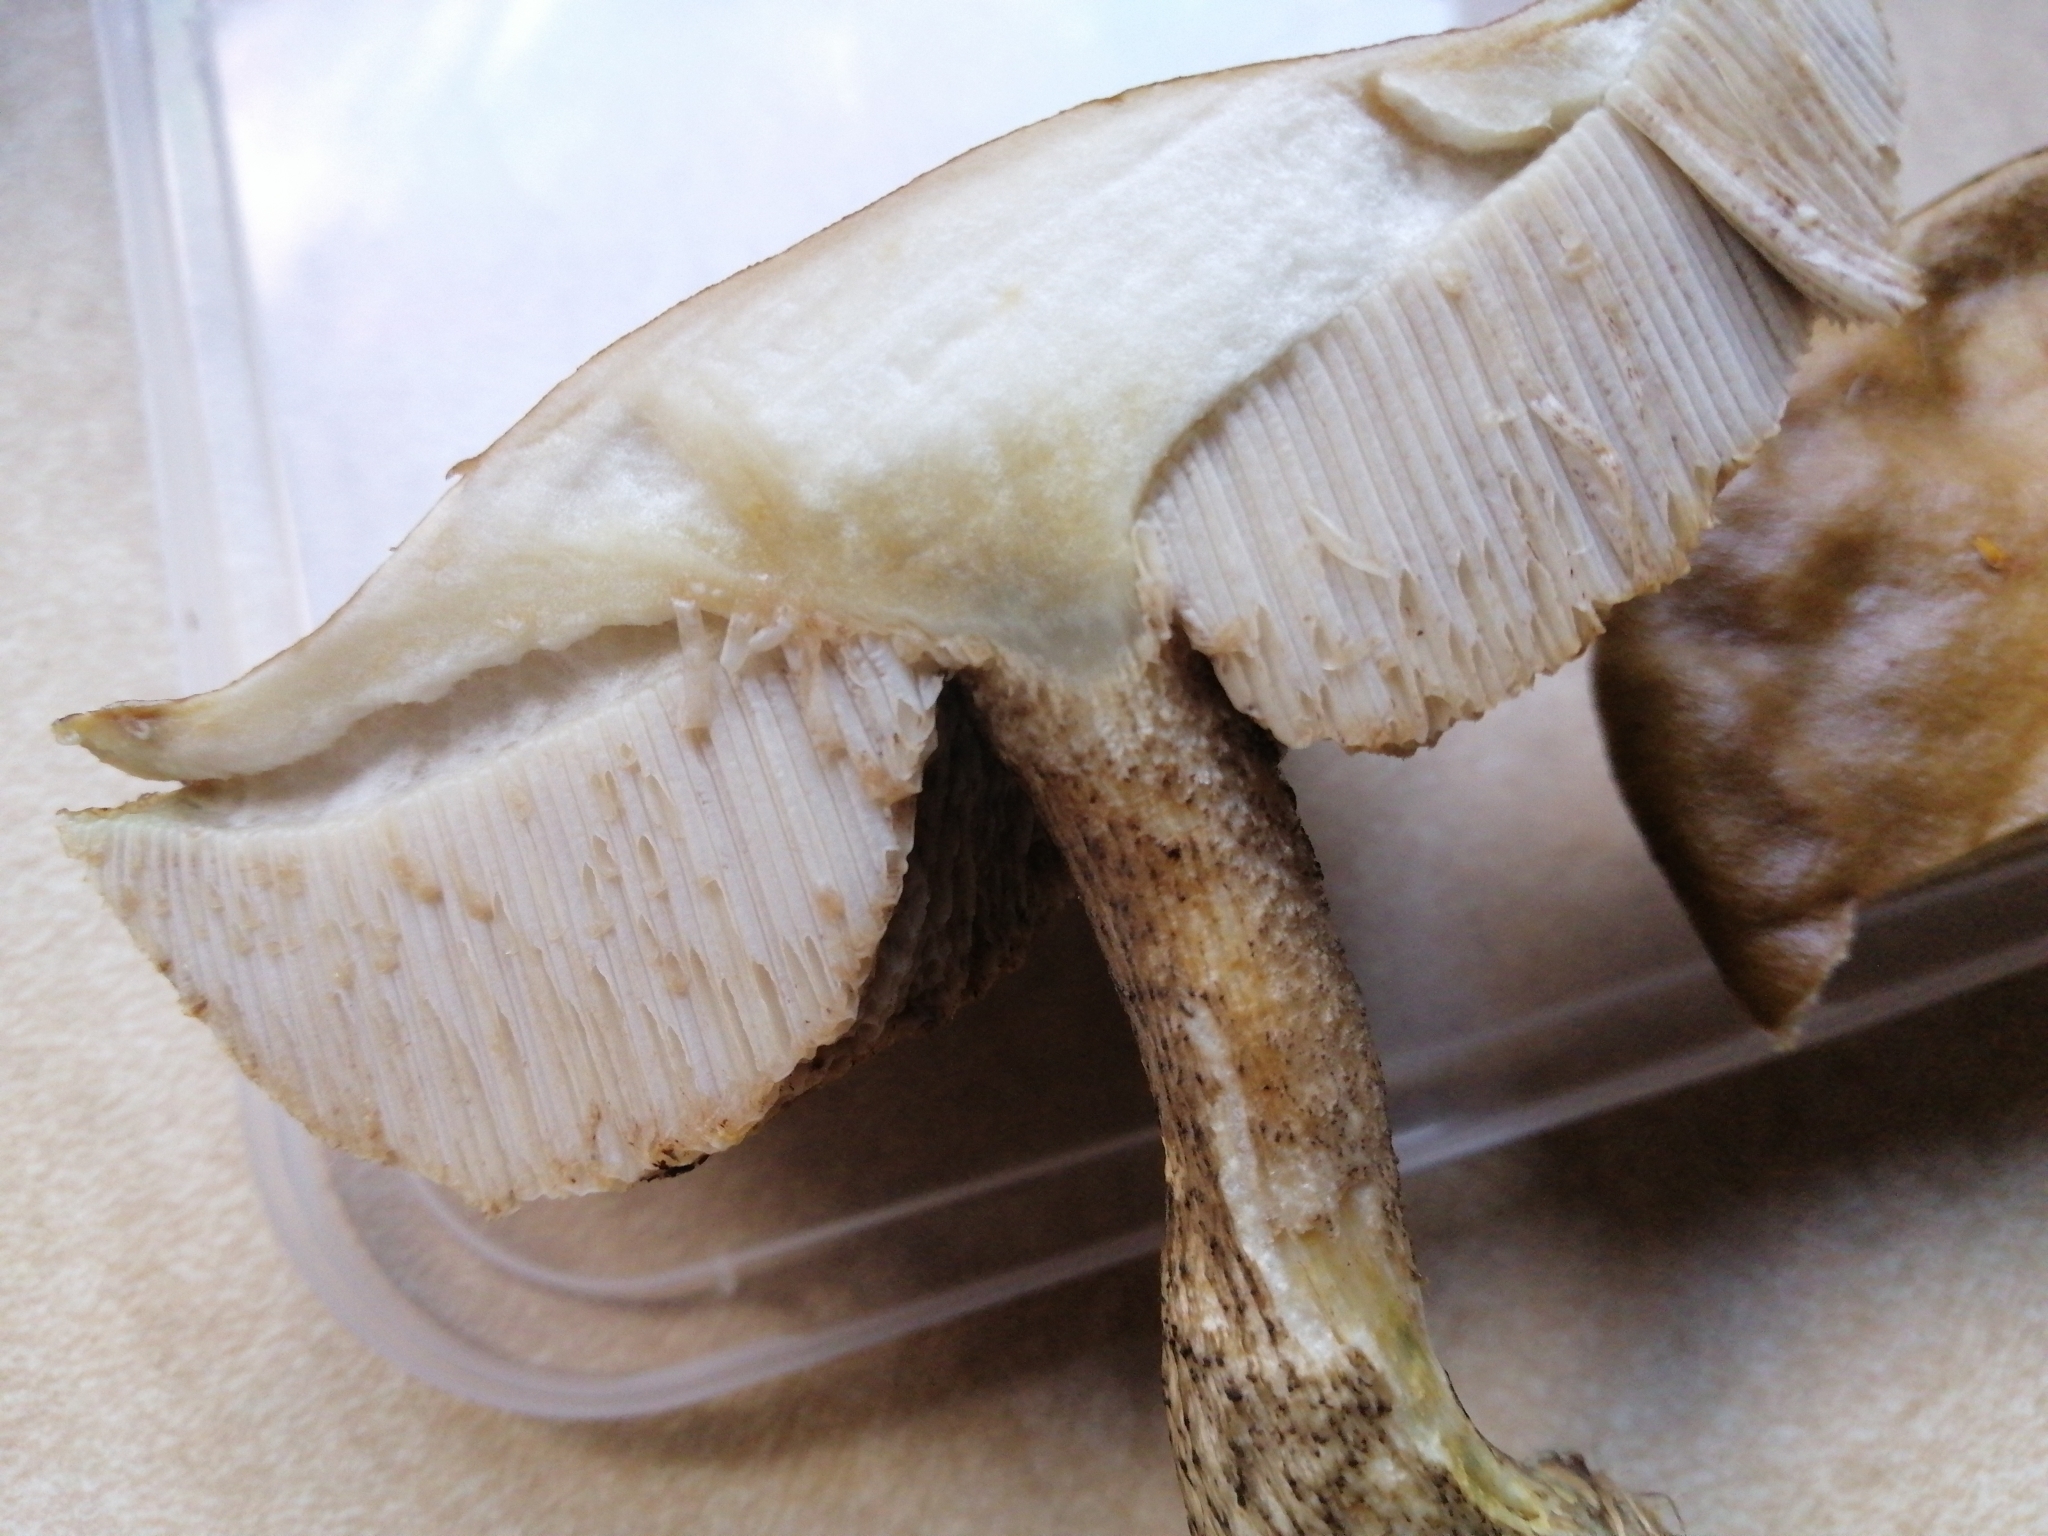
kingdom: Fungi
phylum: Basidiomycota
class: Agaricomycetes
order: Boletales
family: Boletaceae
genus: Leccinum
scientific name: Leccinum scabrum
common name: Blushing bolete
